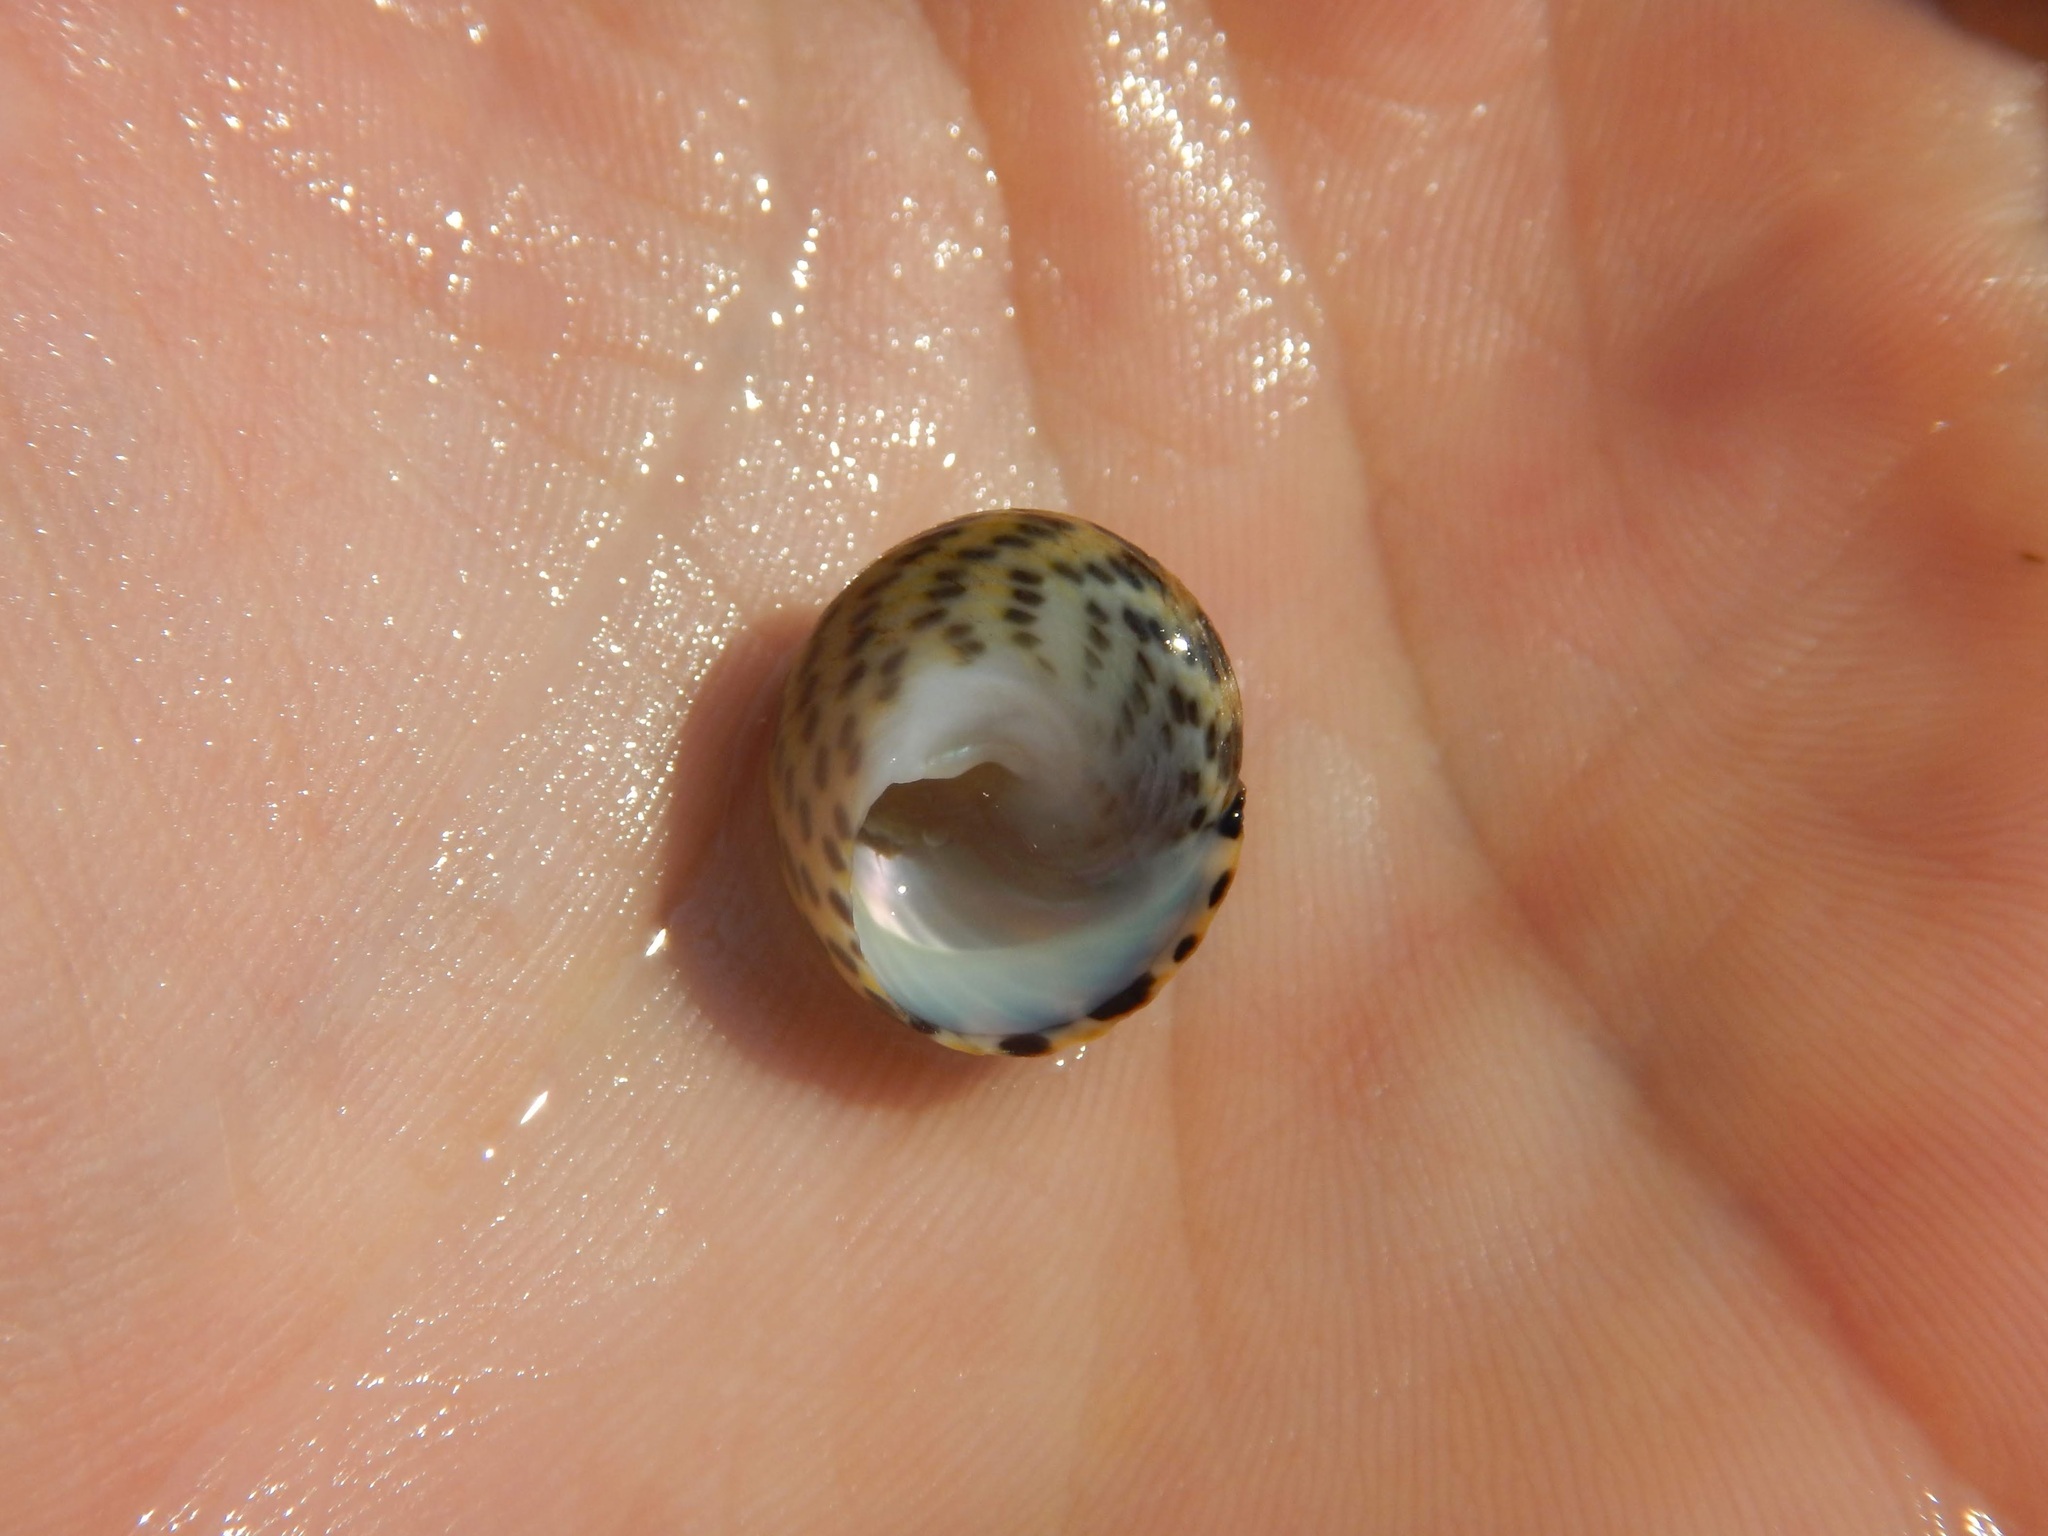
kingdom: Animalia
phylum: Mollusca
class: Gastropoda
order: Trochida
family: Trochidae
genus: Phorcus
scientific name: Phorcus turbinatus
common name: Turbinate monodont
